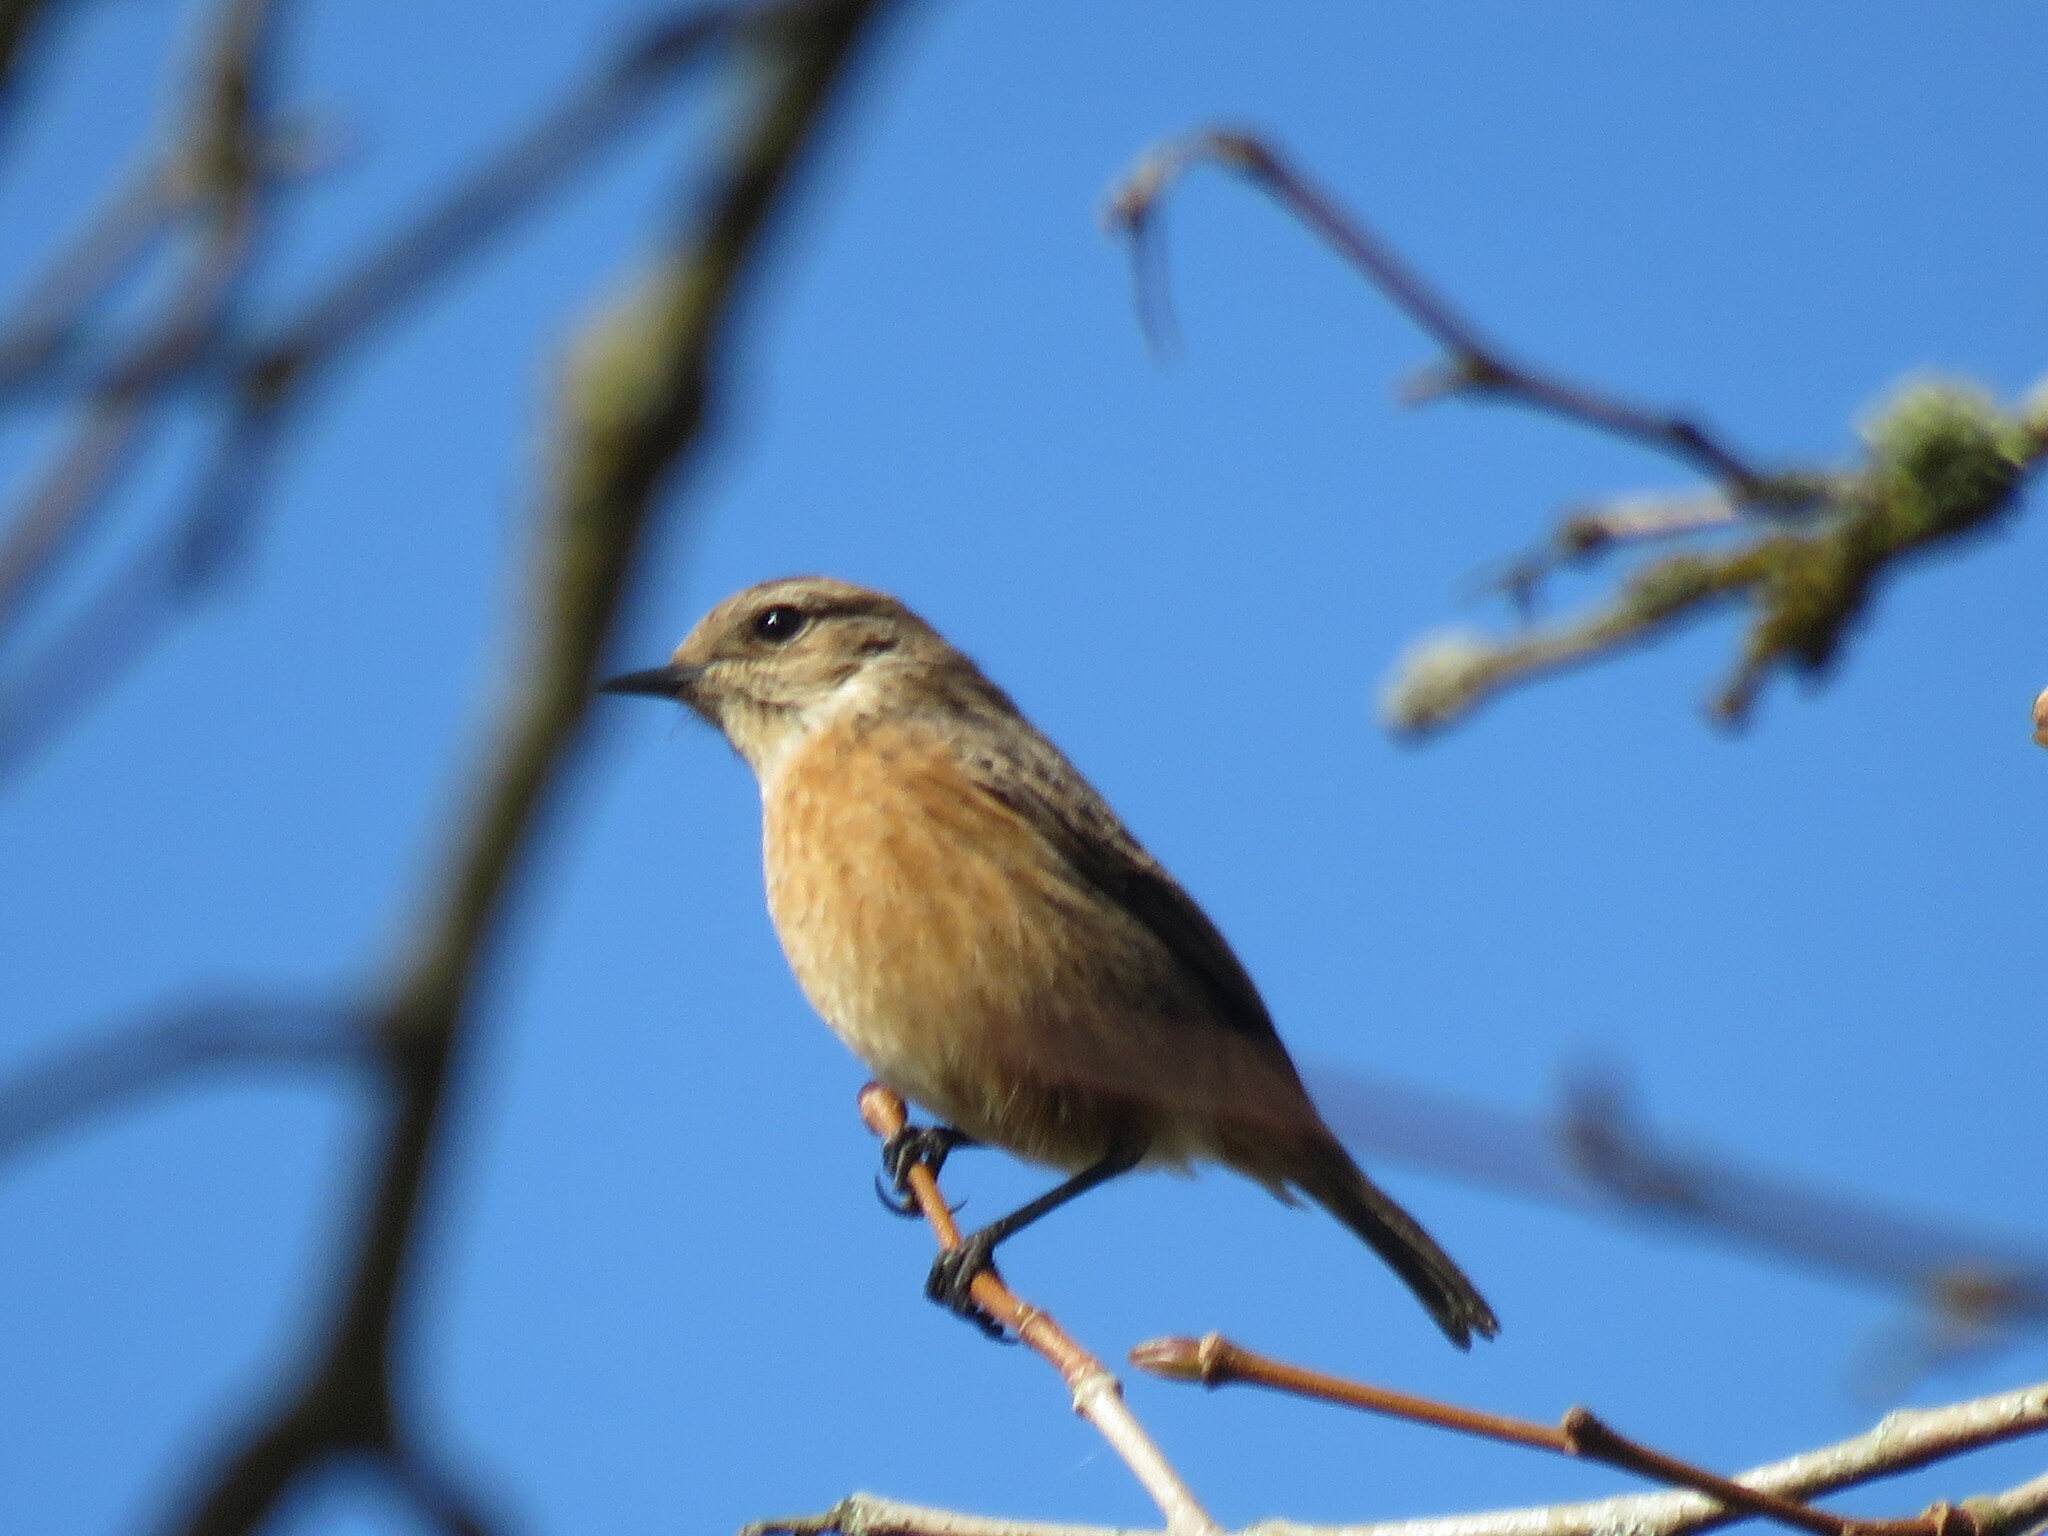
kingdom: Animalia
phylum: Chordata
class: Aves
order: Passeriformes
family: Muscicapidae
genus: Saxicola
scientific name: Saxicola rubicola
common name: European stonechat
